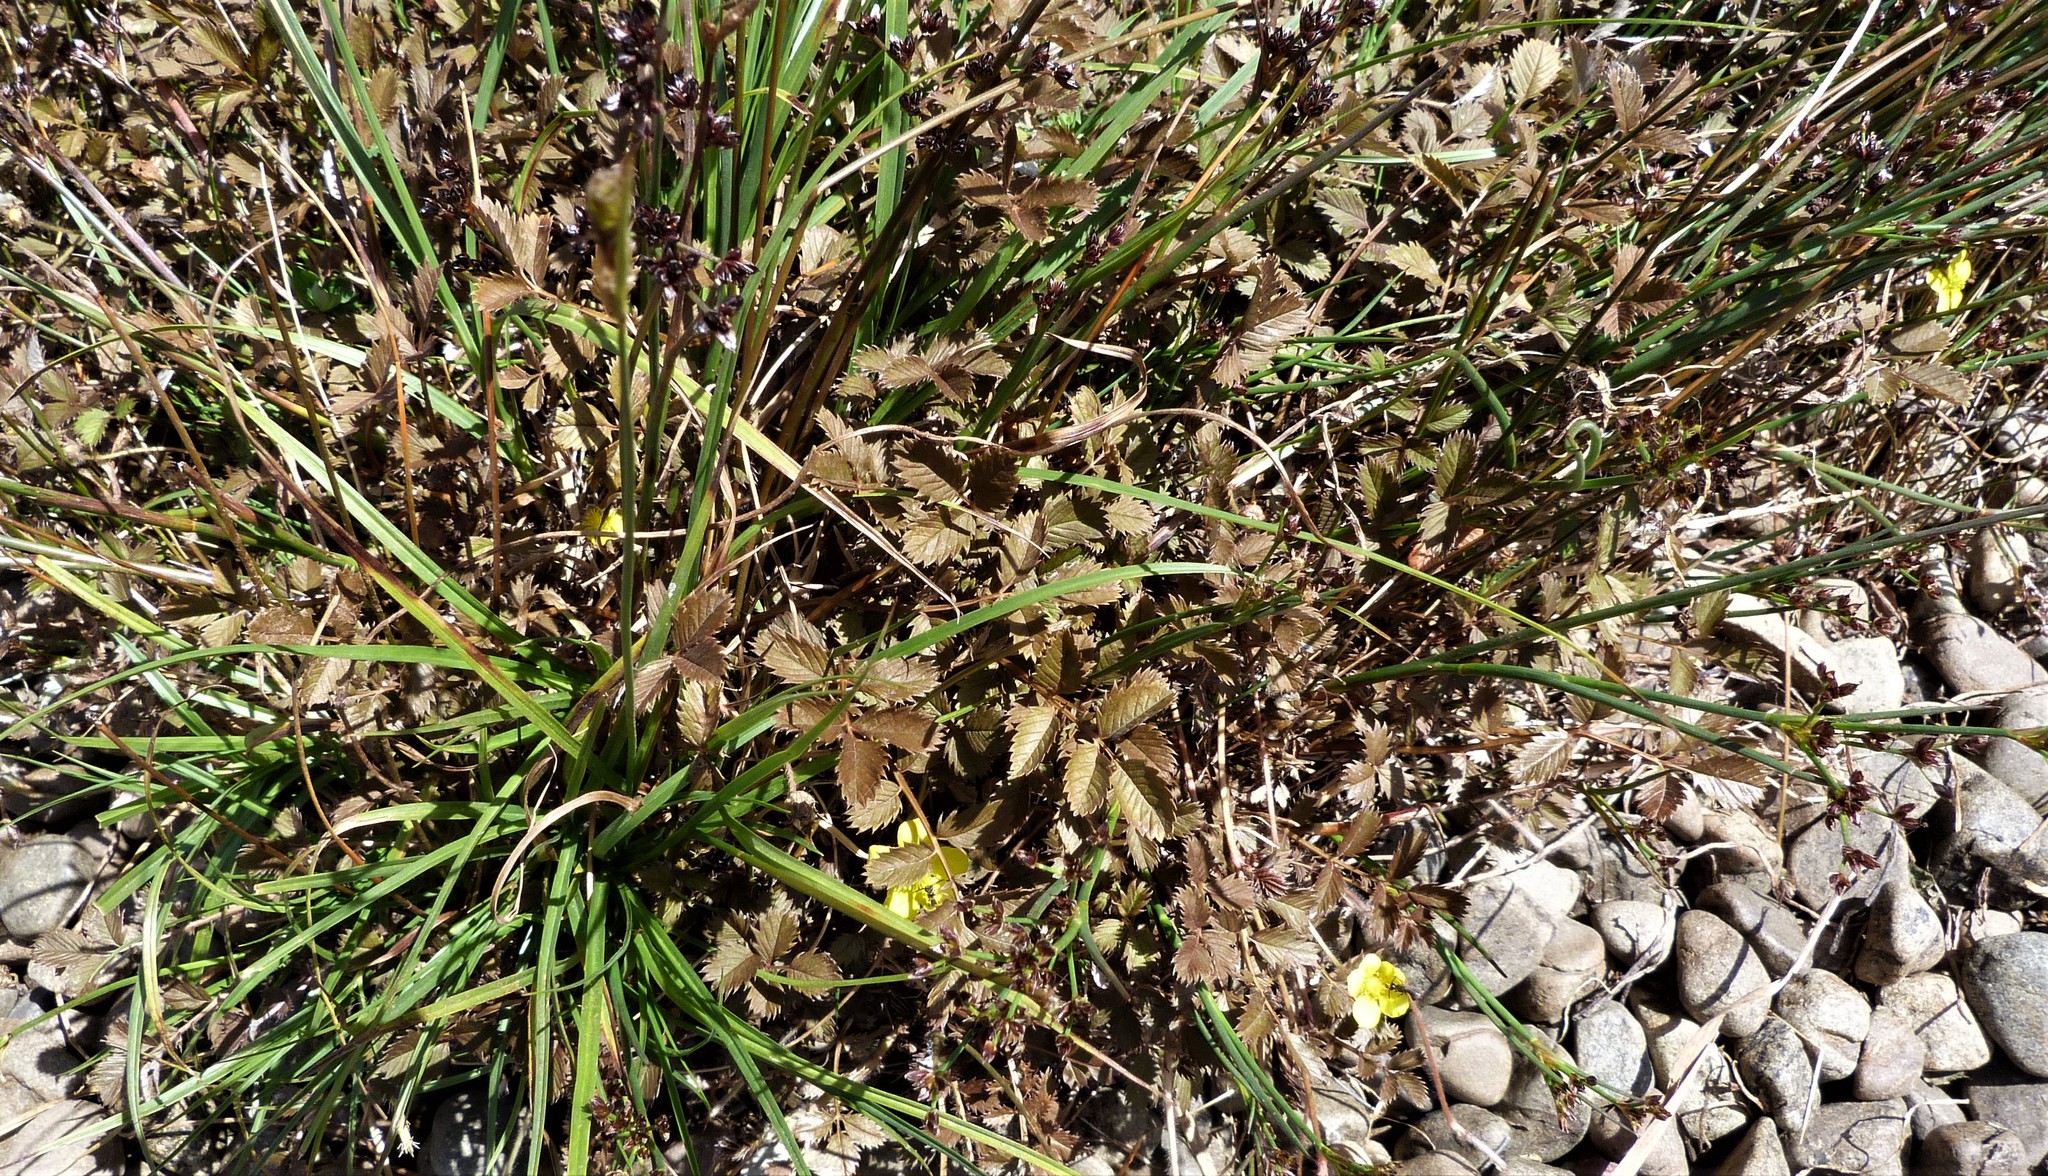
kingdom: Plantae
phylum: Tracheophyta
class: Magnoliopsida
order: Rosales
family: Rosaceae
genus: Argentina
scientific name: Argentina anserinoides
